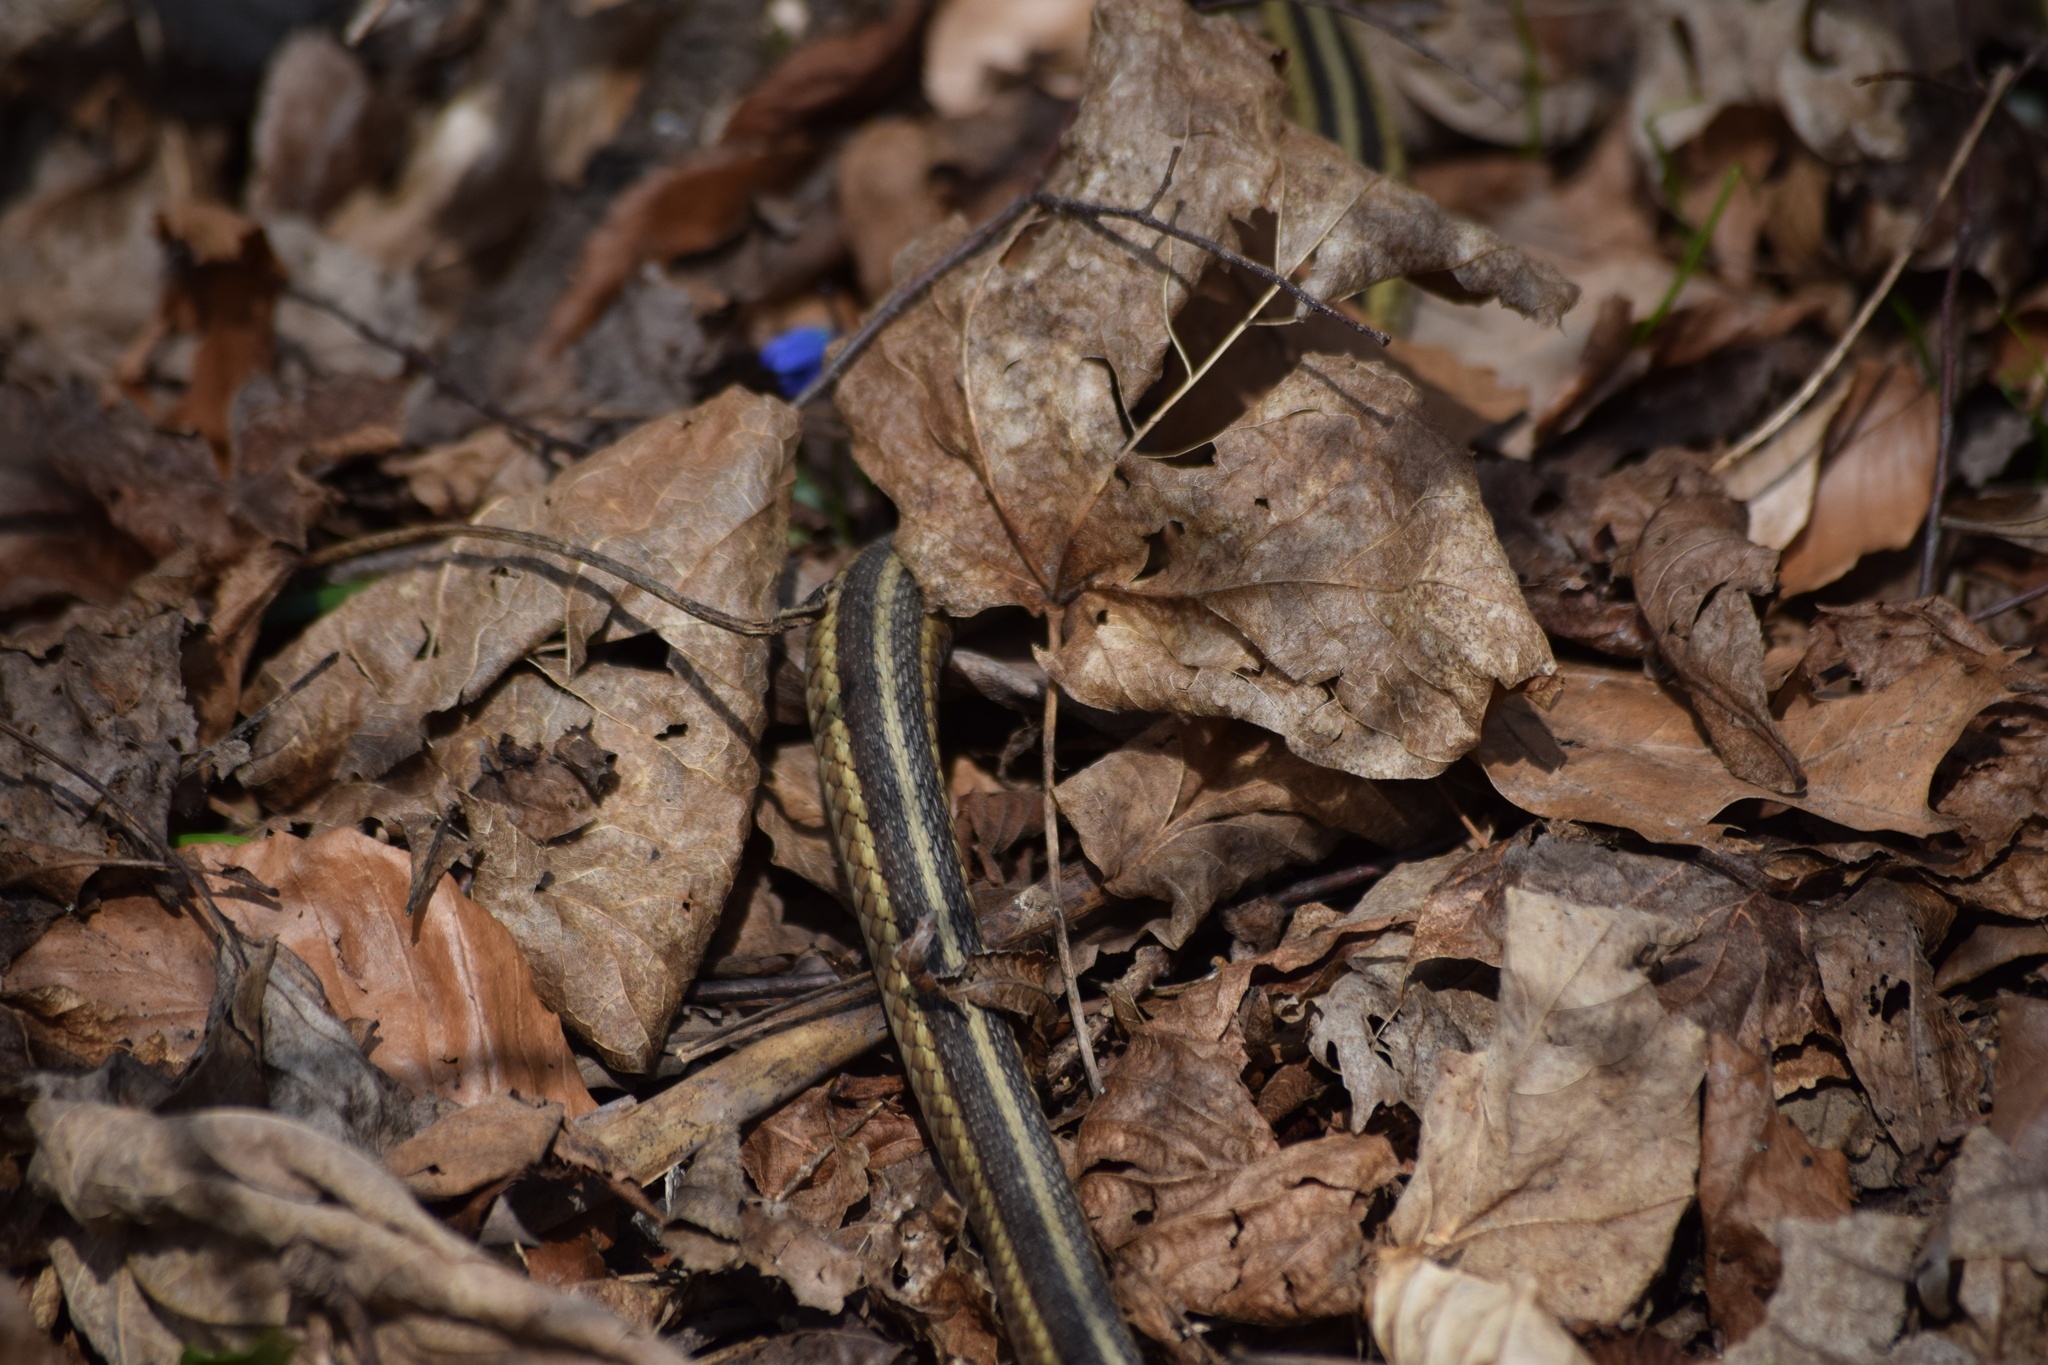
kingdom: Animalia
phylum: Chordata
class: Squamata
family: Colubridae
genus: Thamnophis
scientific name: Thamnophis sirtalis
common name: Common garter snake
